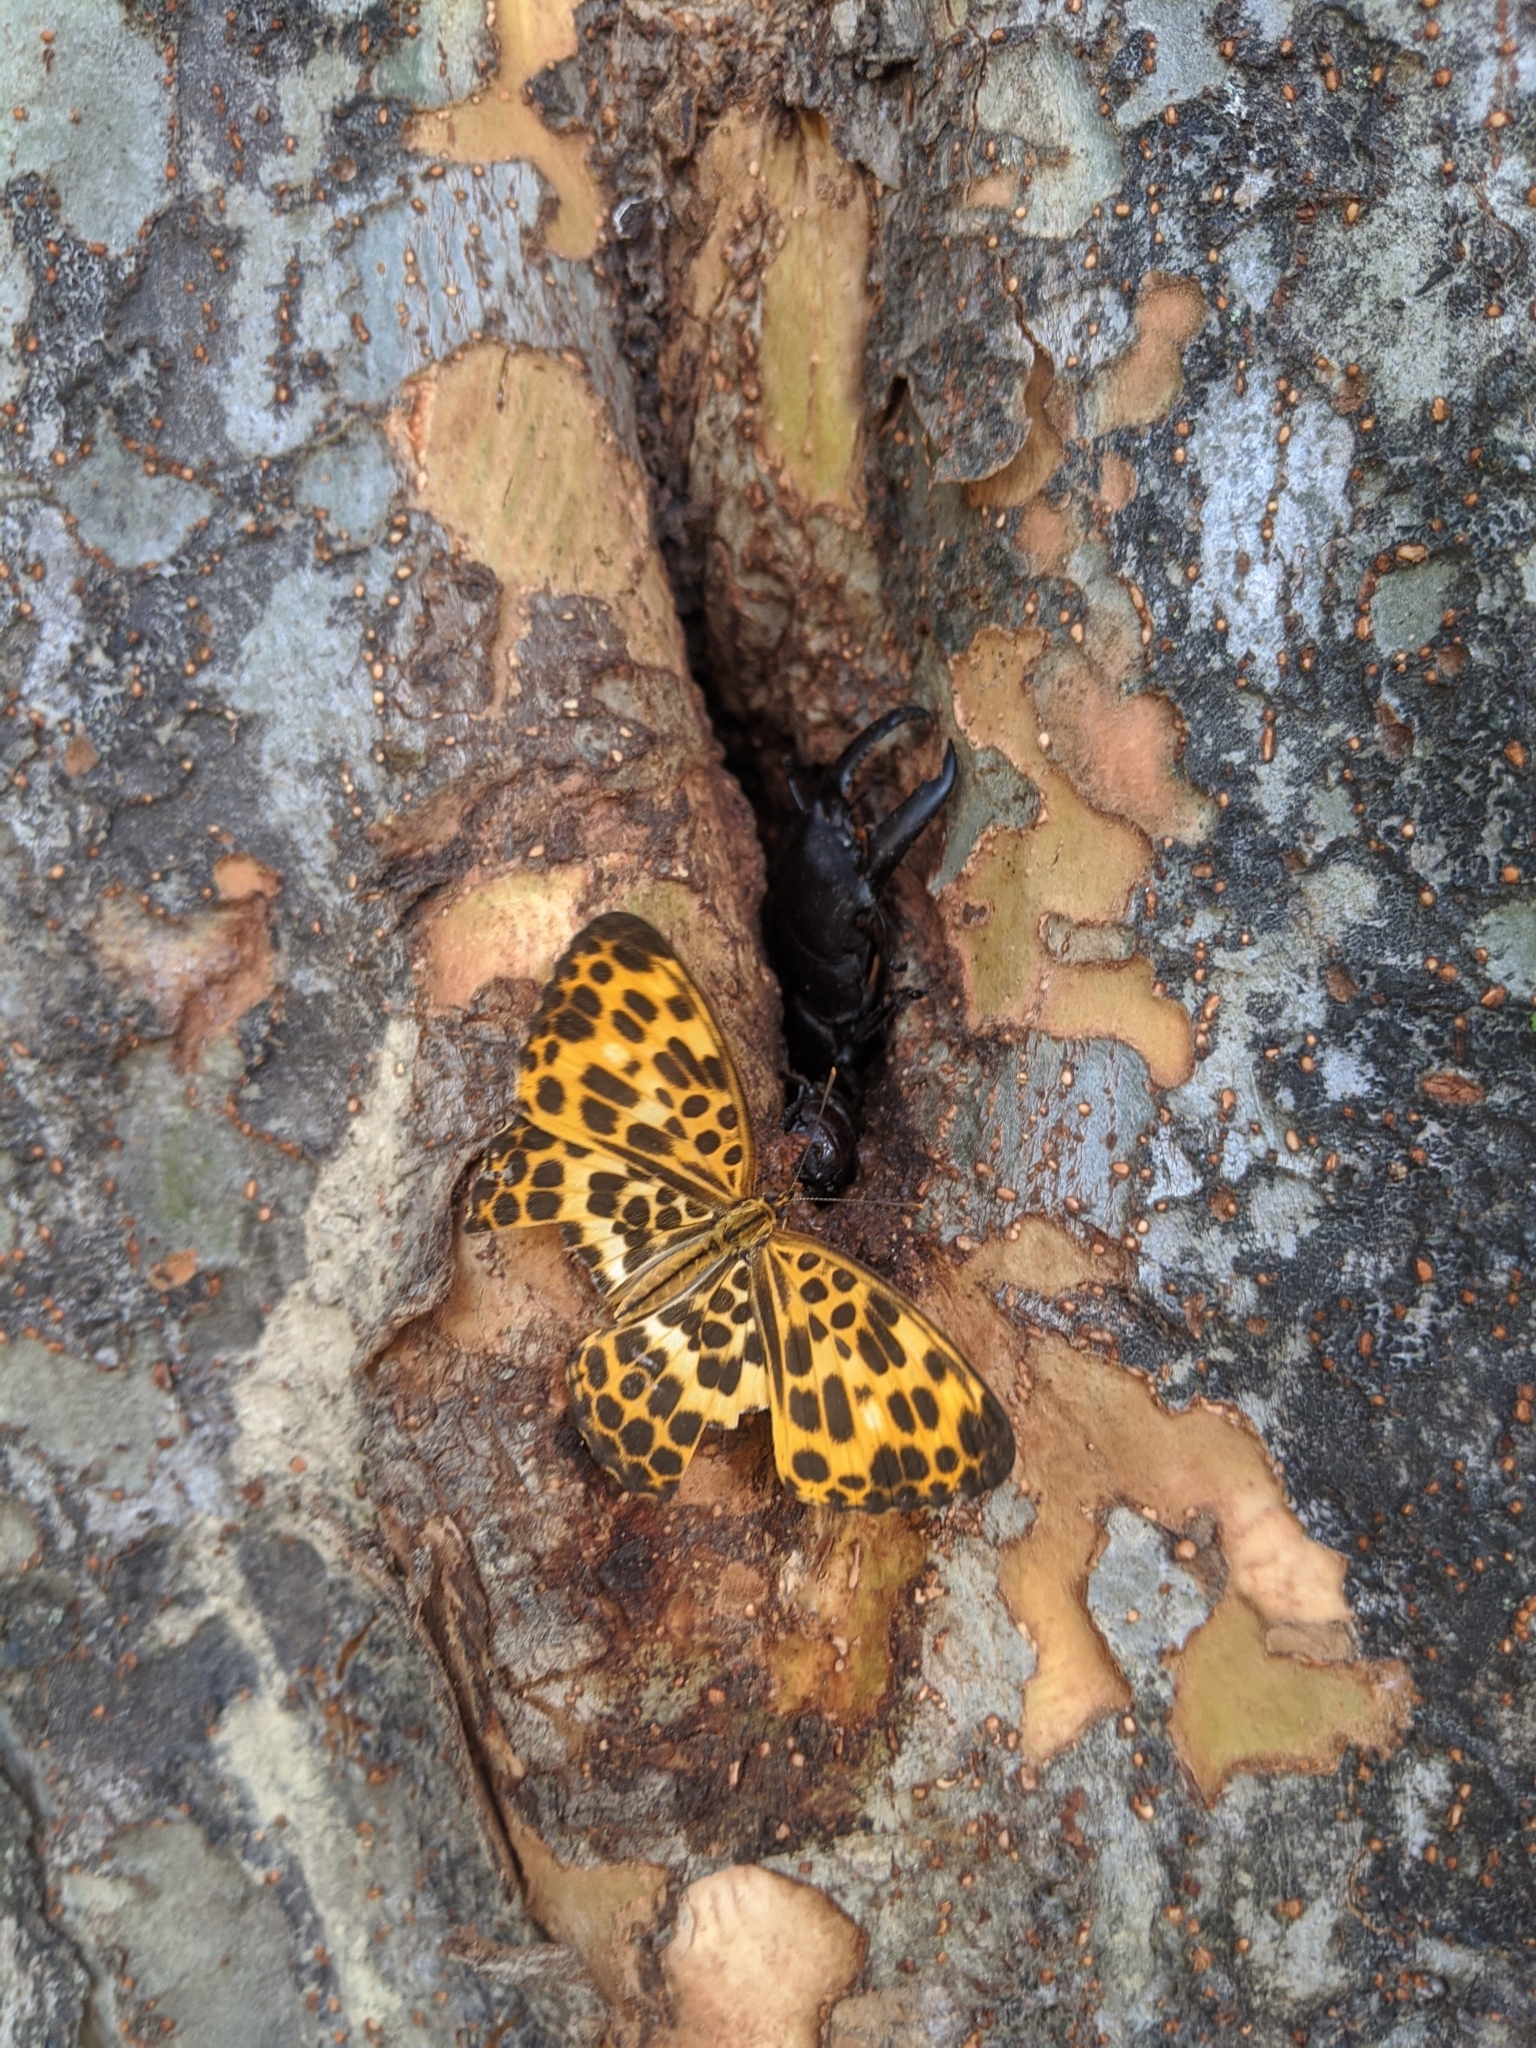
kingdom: Animalia
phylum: Arthropoda
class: Insecta
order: Lepidoptera
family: Nymphalidae
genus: Timelaea
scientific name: Timelaea albescens
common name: Beautiful leopard
